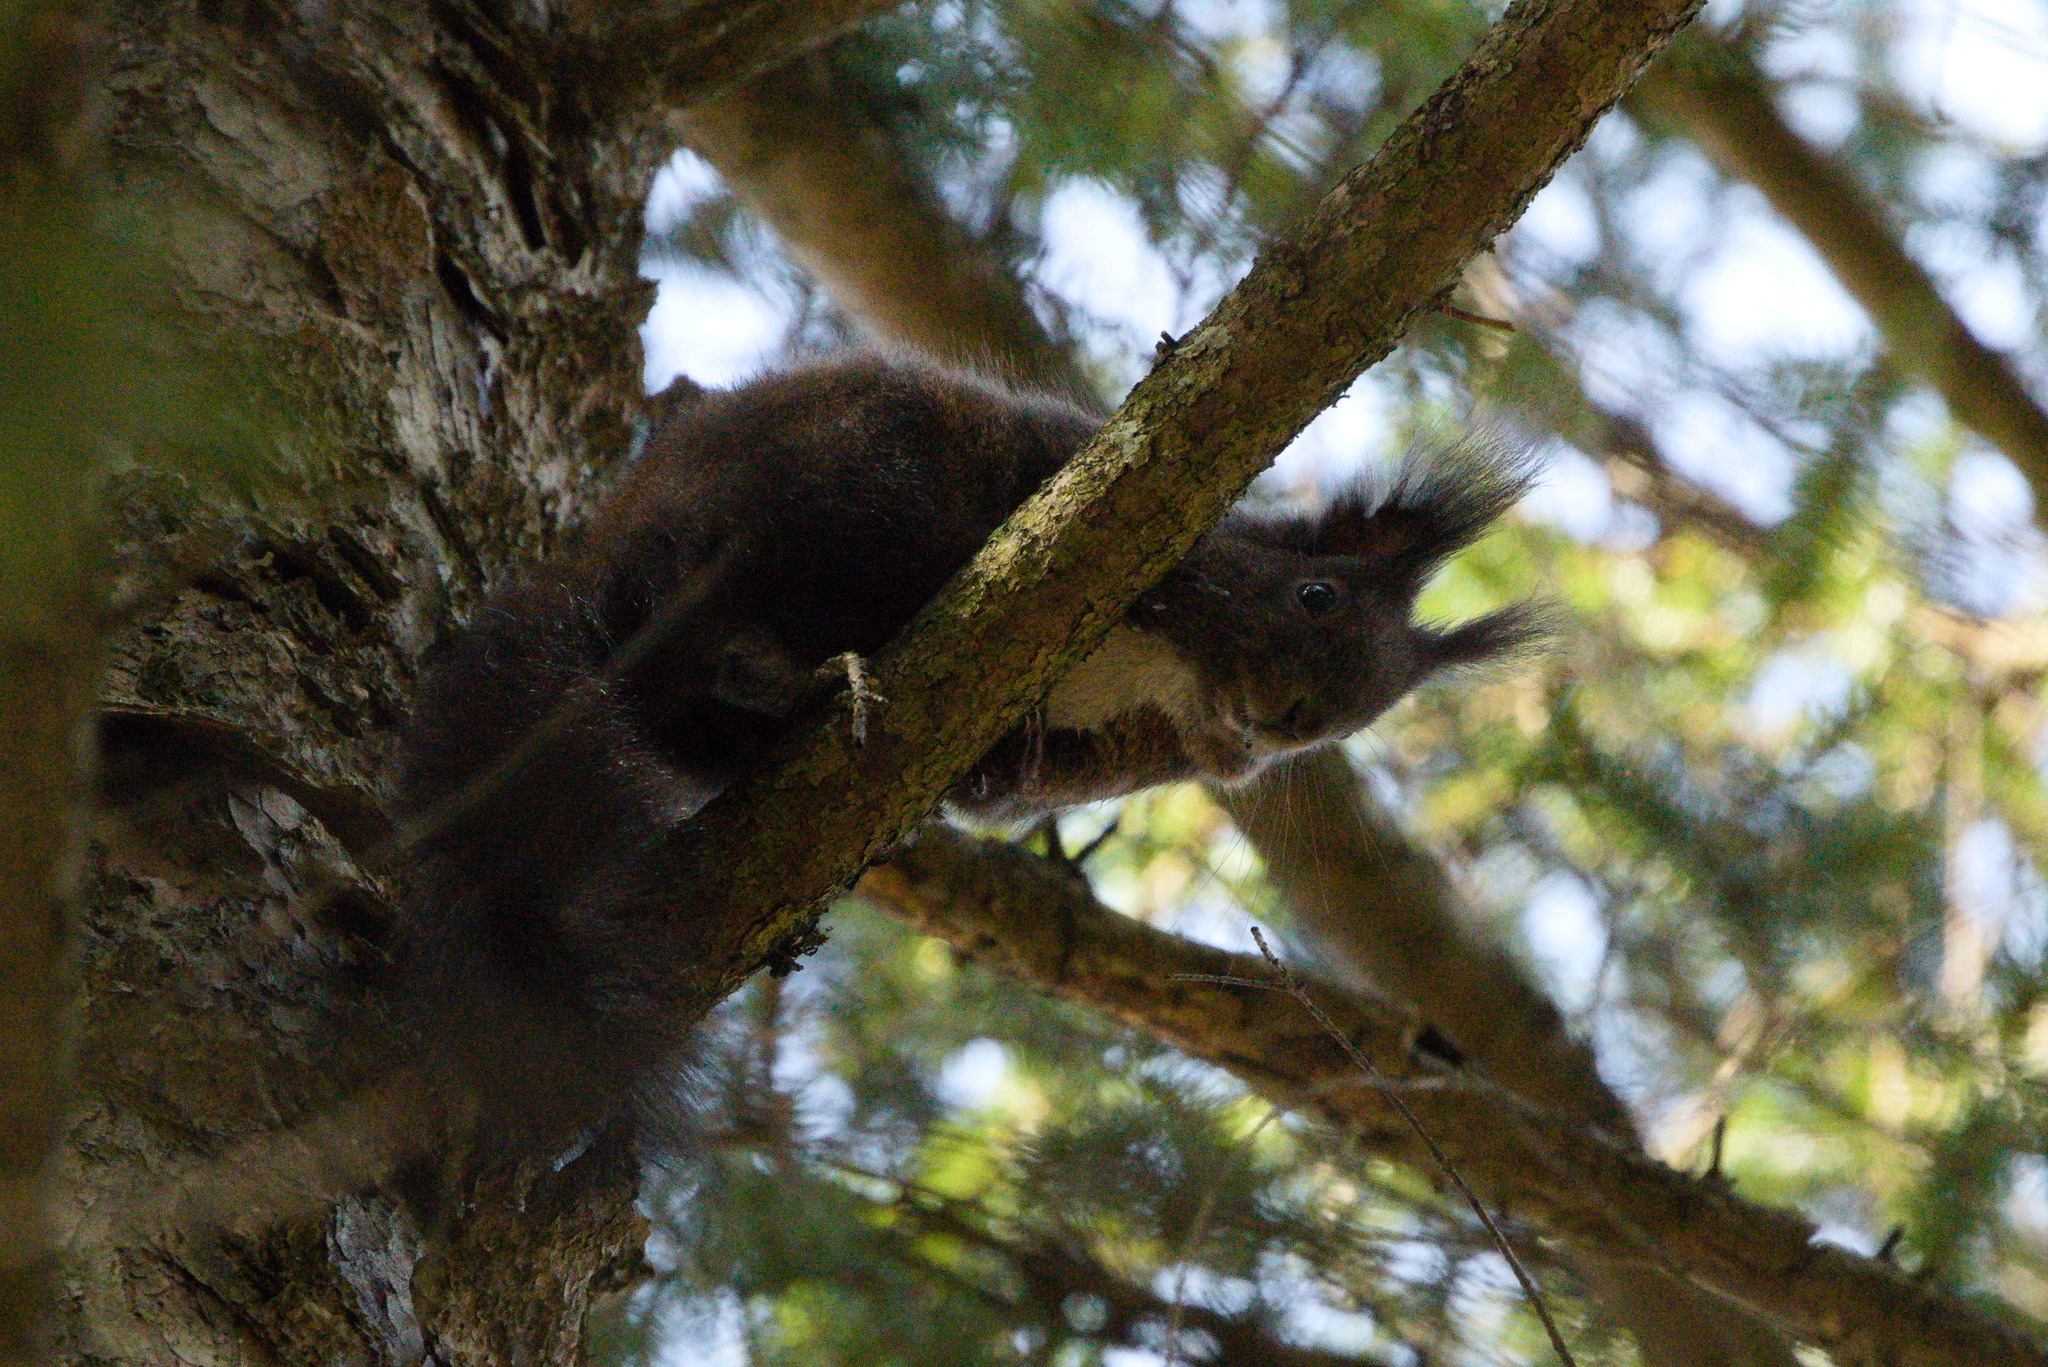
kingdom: Animalia
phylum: Chordata
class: Mammalia
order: Rodentia
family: Sciuridae
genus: Sciurus
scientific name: Sciurus vulgaris
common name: Eurasian red squirrel
